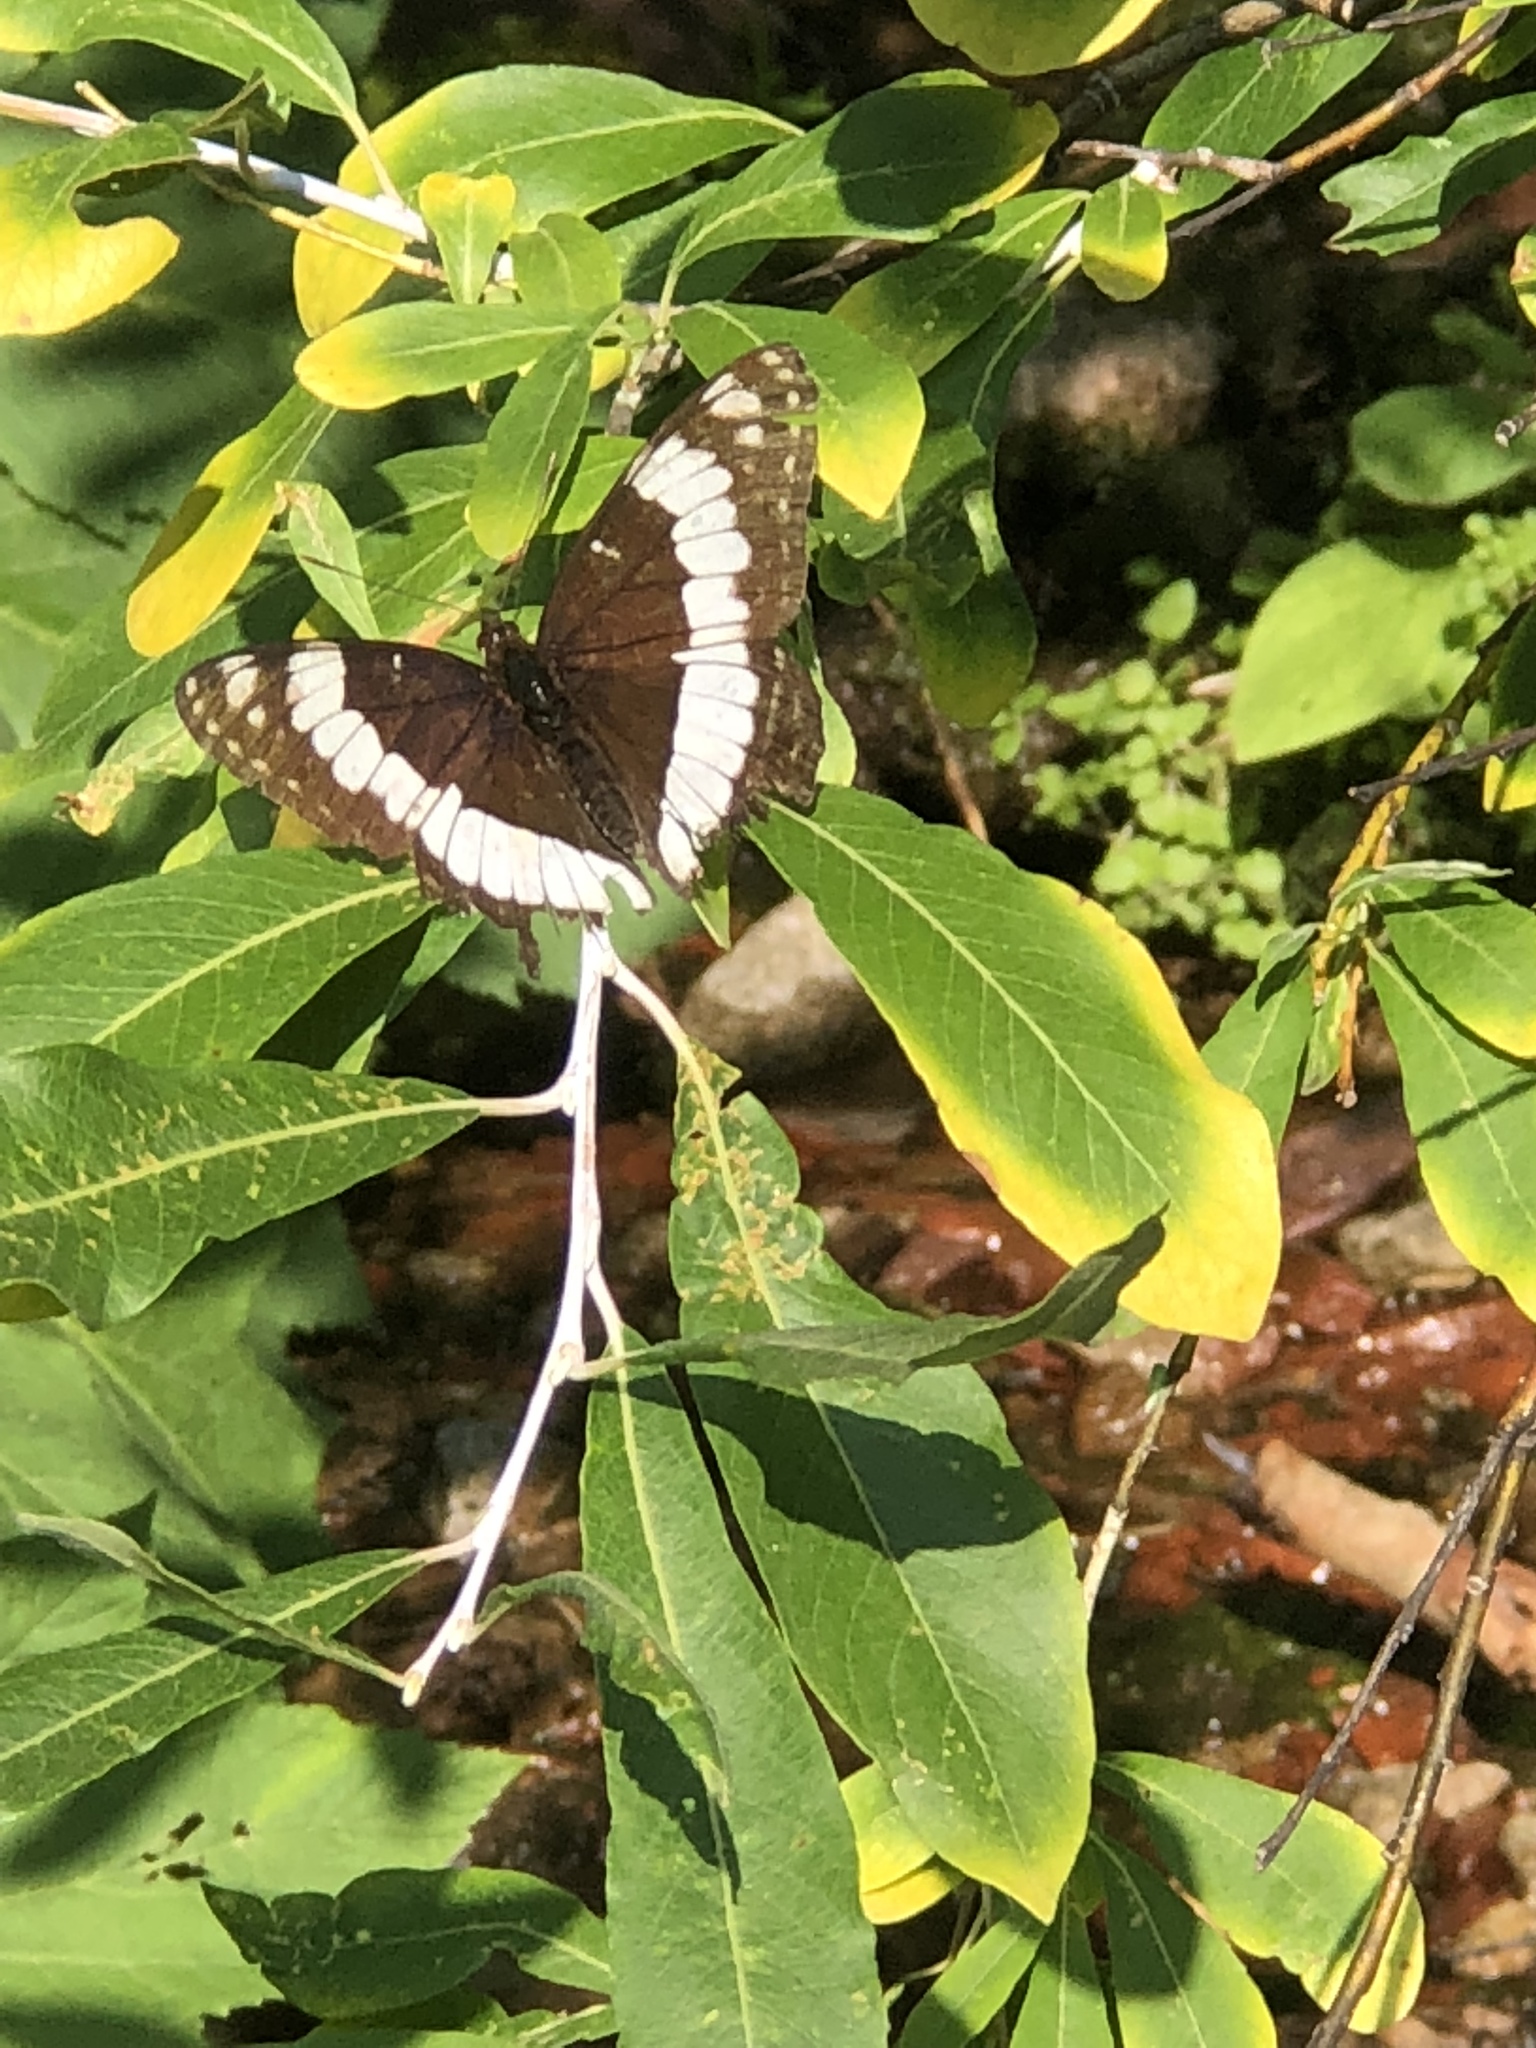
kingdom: Animalia
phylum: Arthropoda
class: Insecta
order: Lepidoptera
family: Nymphalidae
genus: Limenitis
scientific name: Limenitis weidemeyerii
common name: Weidemeyer's admiral
